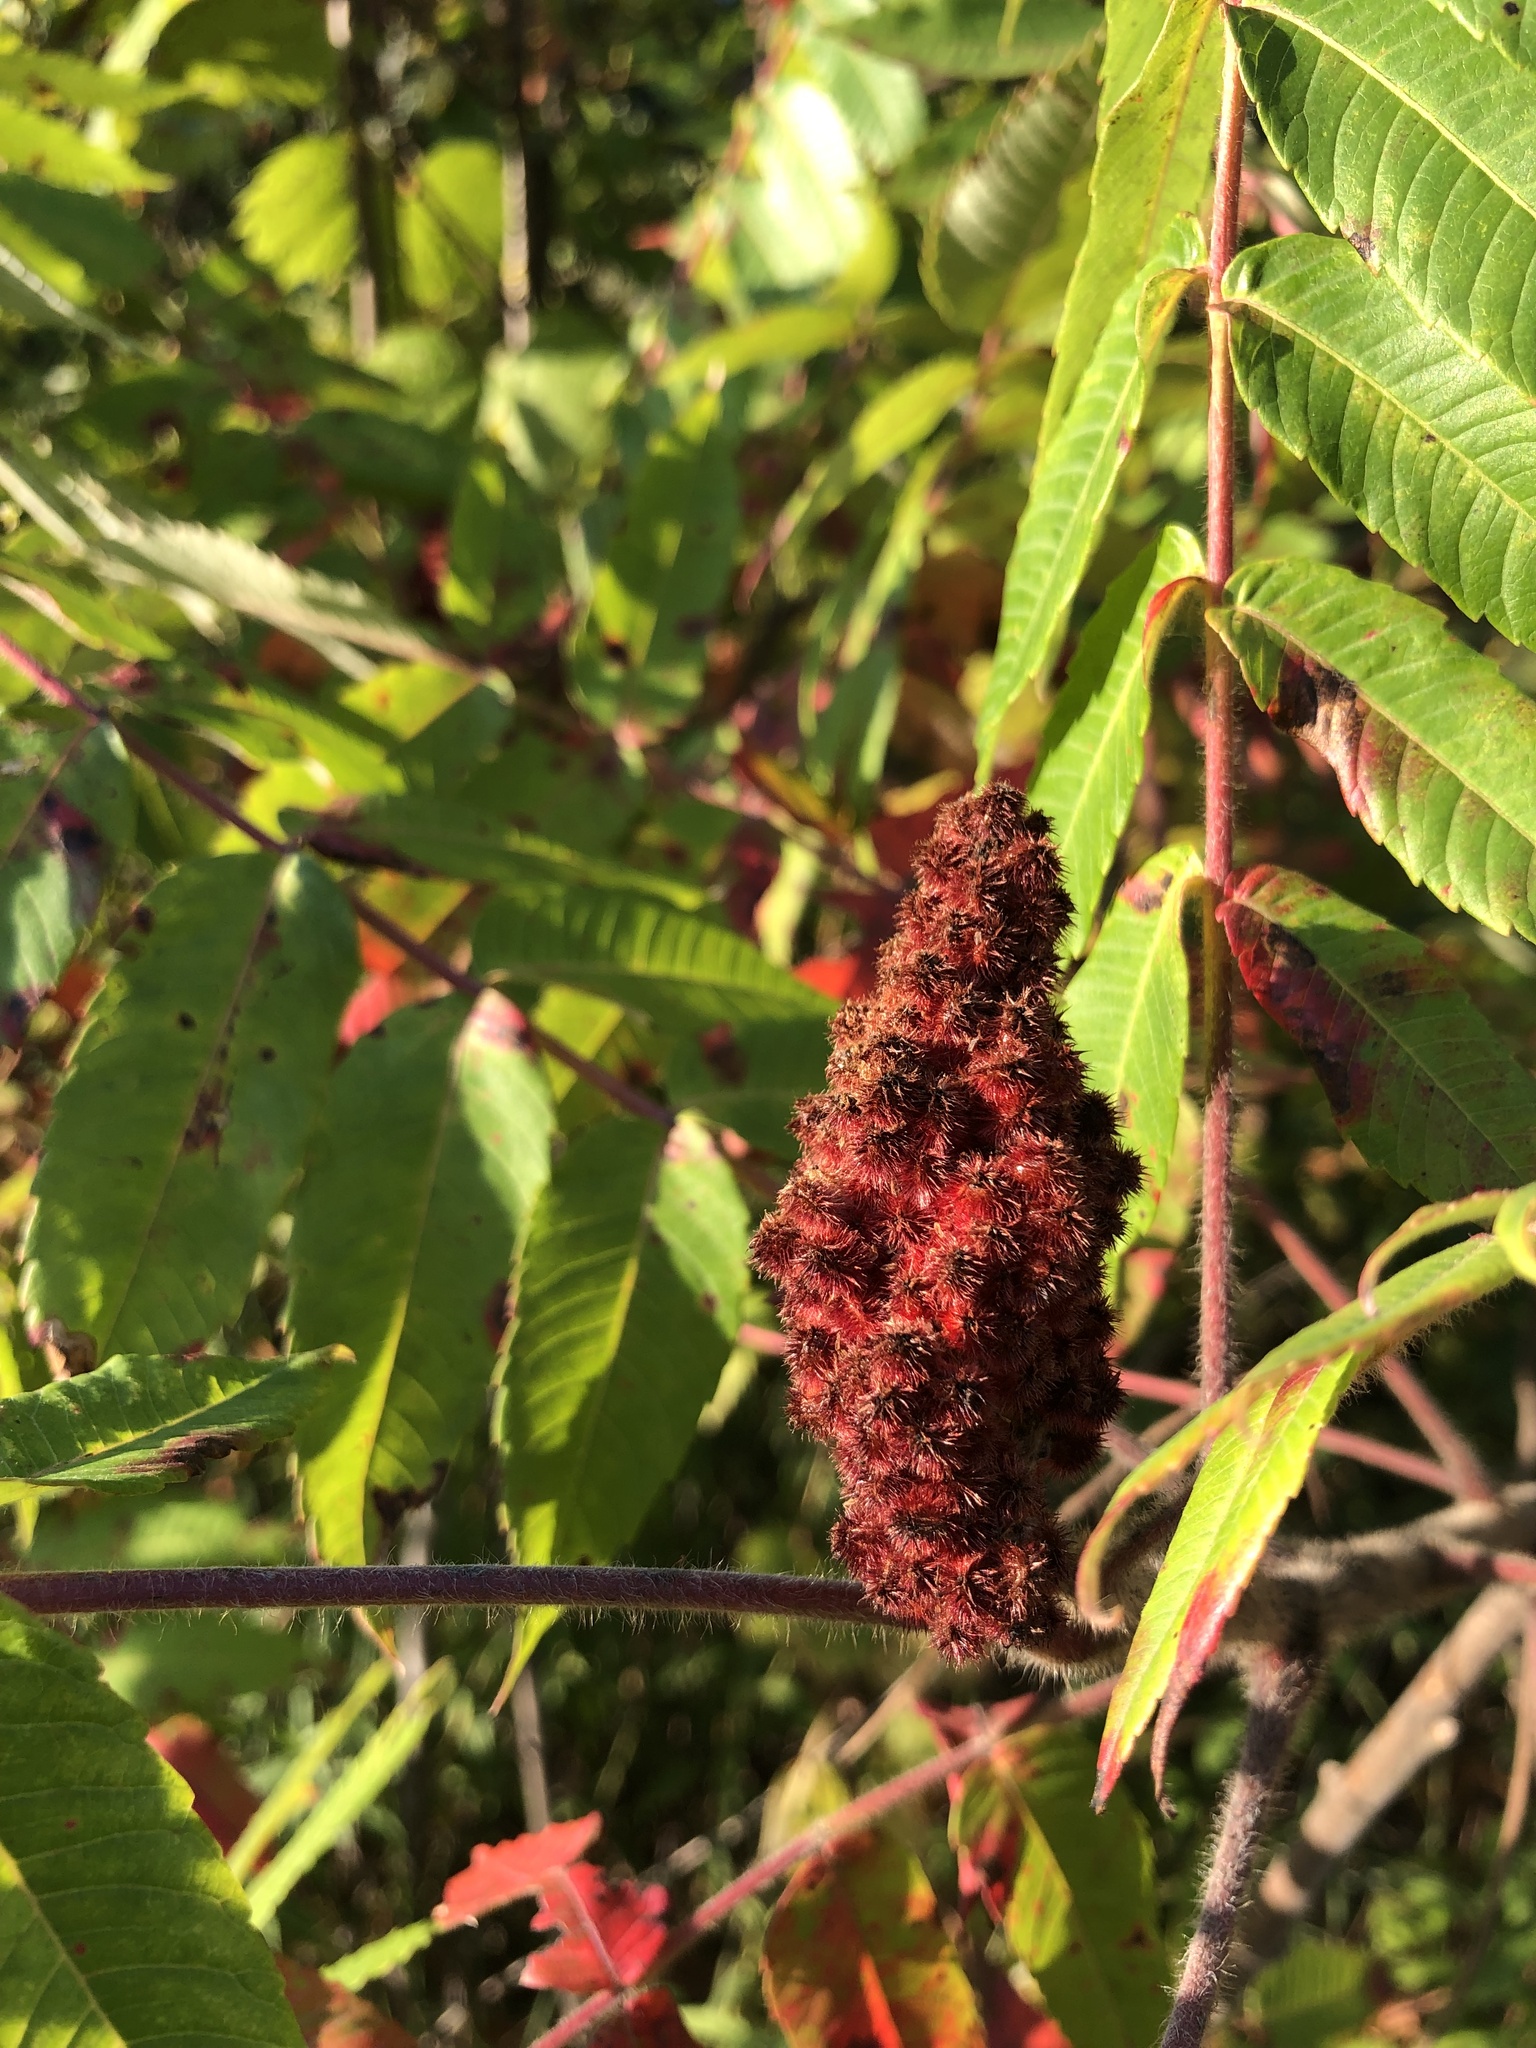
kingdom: Plantae
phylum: Tracheophyta
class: Magnoliopsida
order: Sapindales
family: Anacardiaceae
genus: Rhus
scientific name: Rhus typhina
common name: Staghorn sumac
